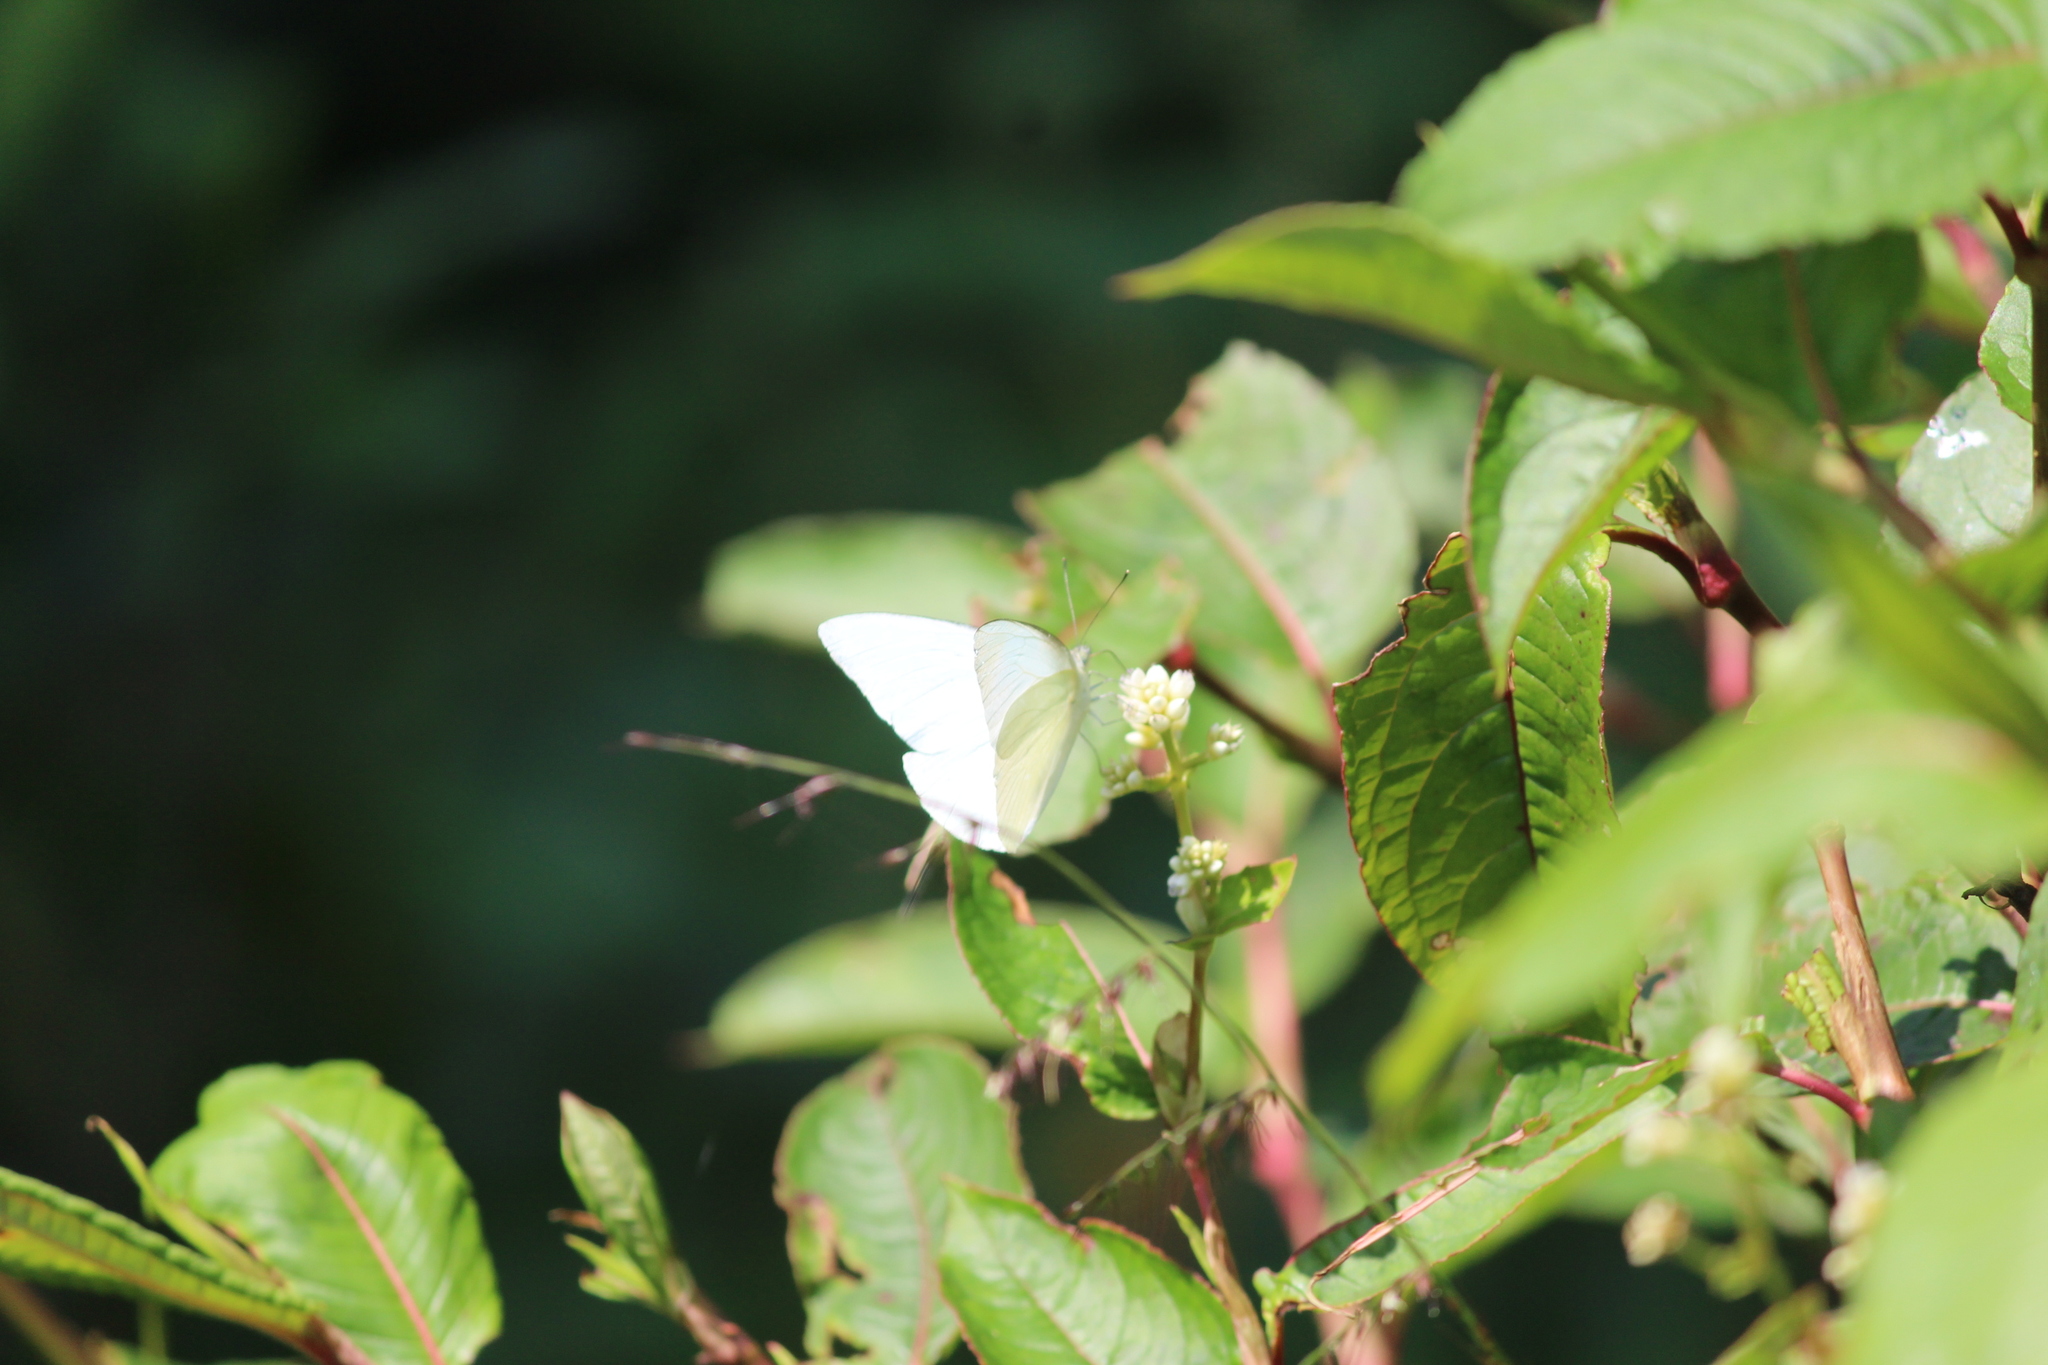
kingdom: Animalia
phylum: Arthropoda
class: Insecta
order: Lepidoptera
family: Pieridae
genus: Appias
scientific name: Appias albina
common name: Common albatross
